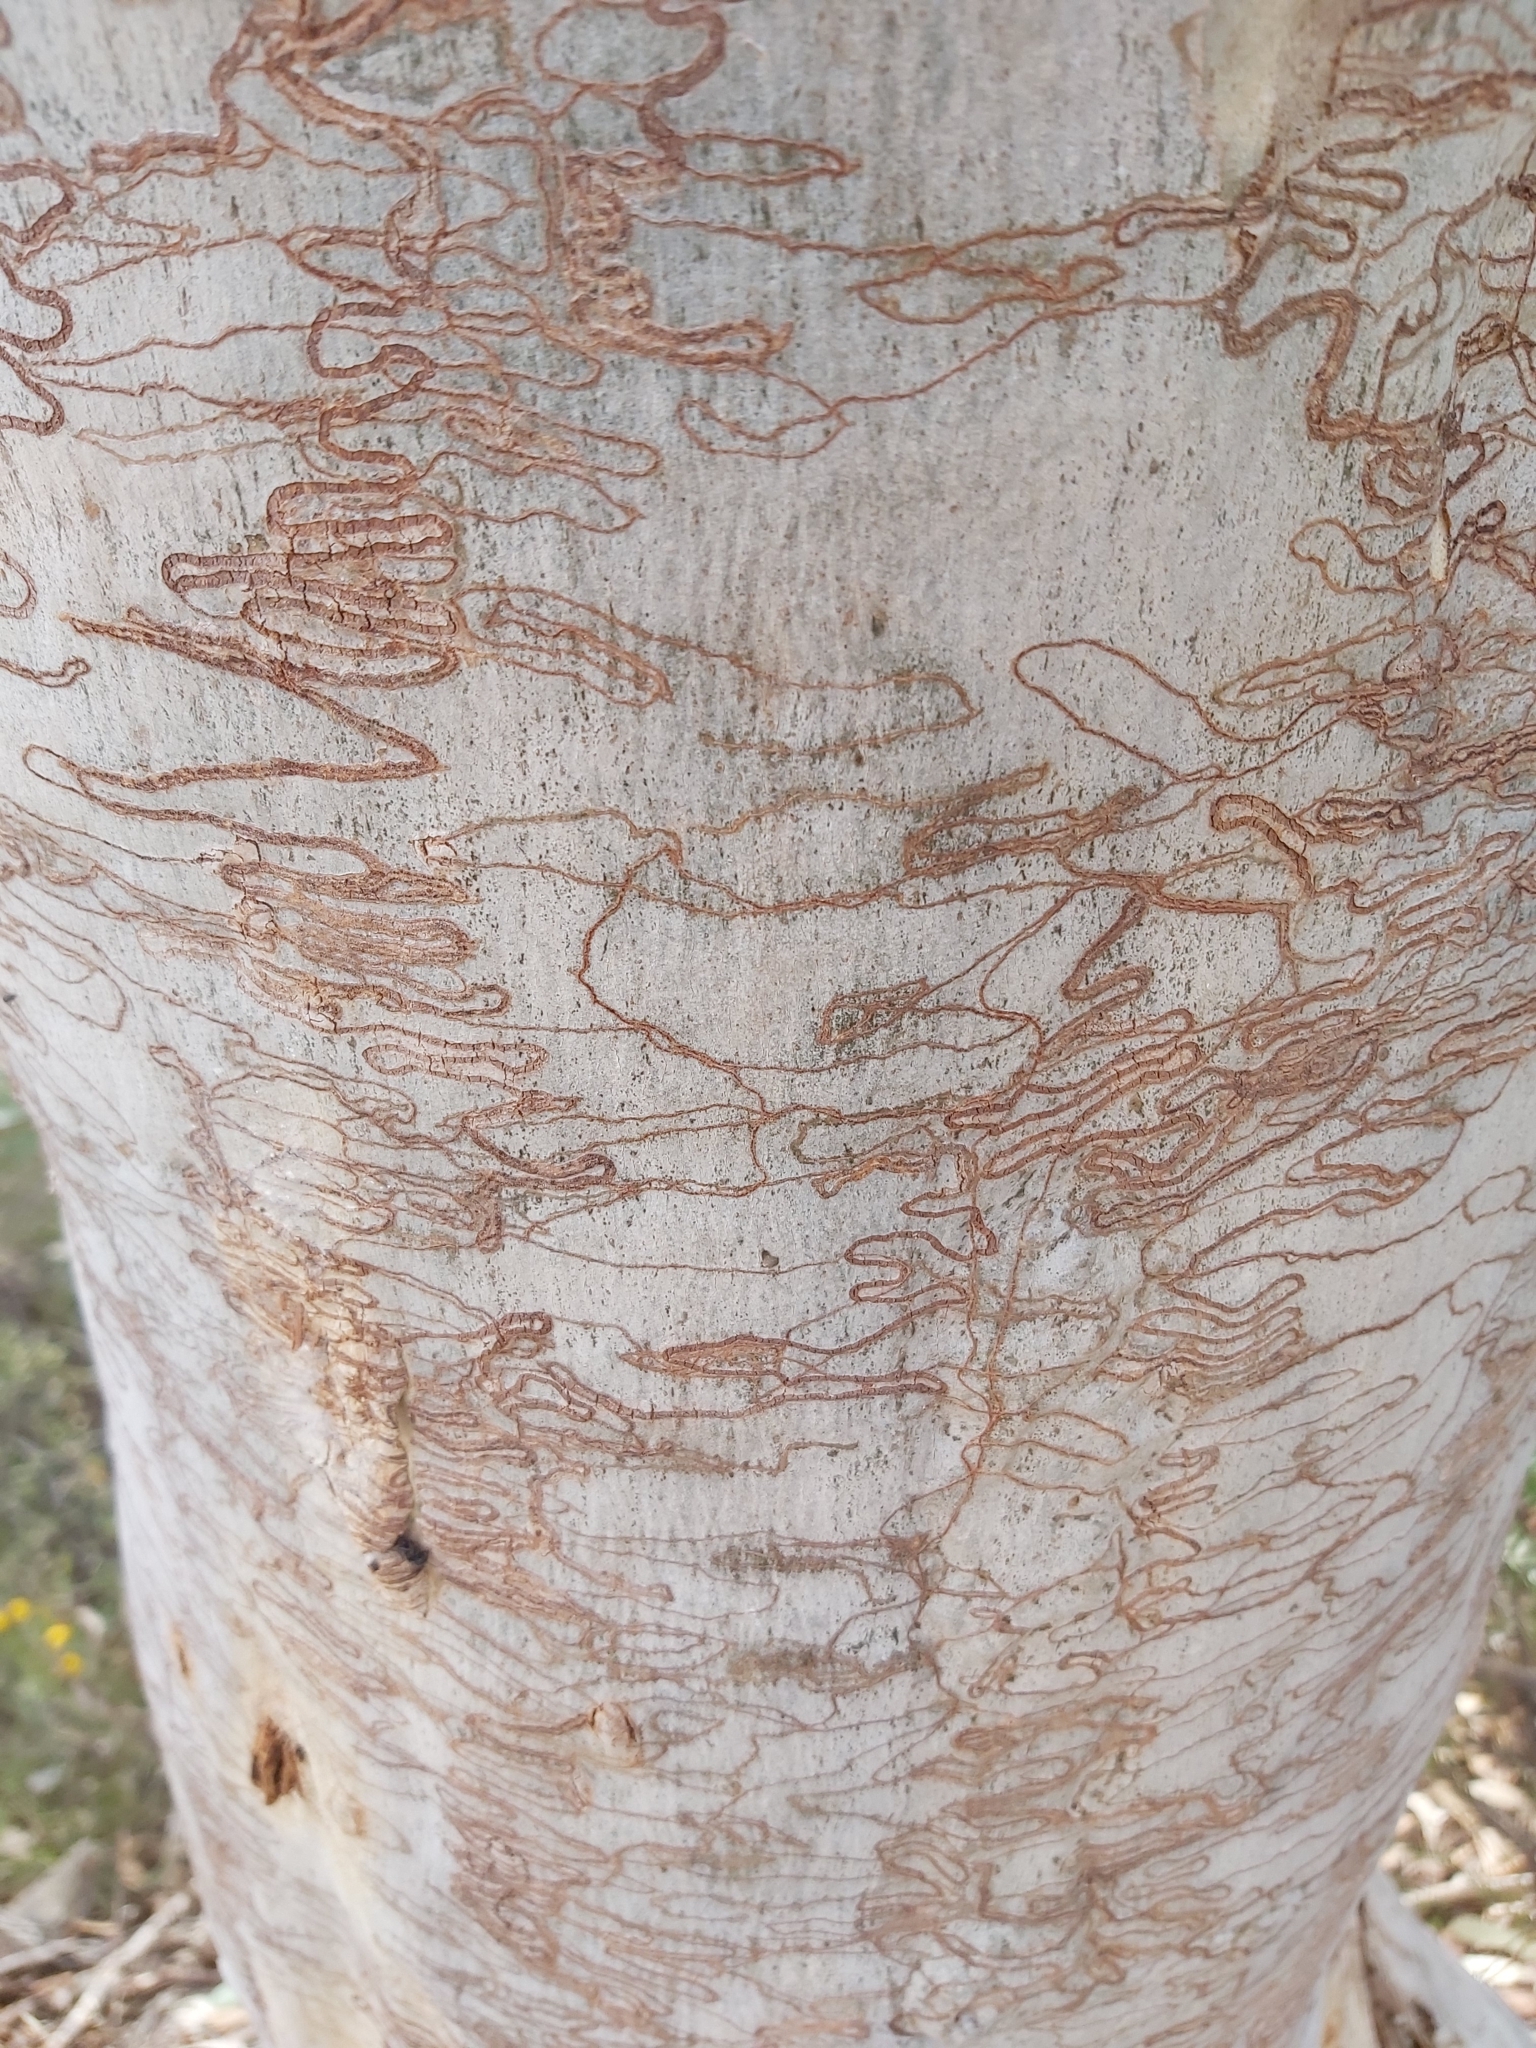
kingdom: Animalia
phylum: Arthropoda
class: Insecta
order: Lepidoptera
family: Bucculatricidae
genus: Ogmograptis
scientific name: Ogmograptis scribula
